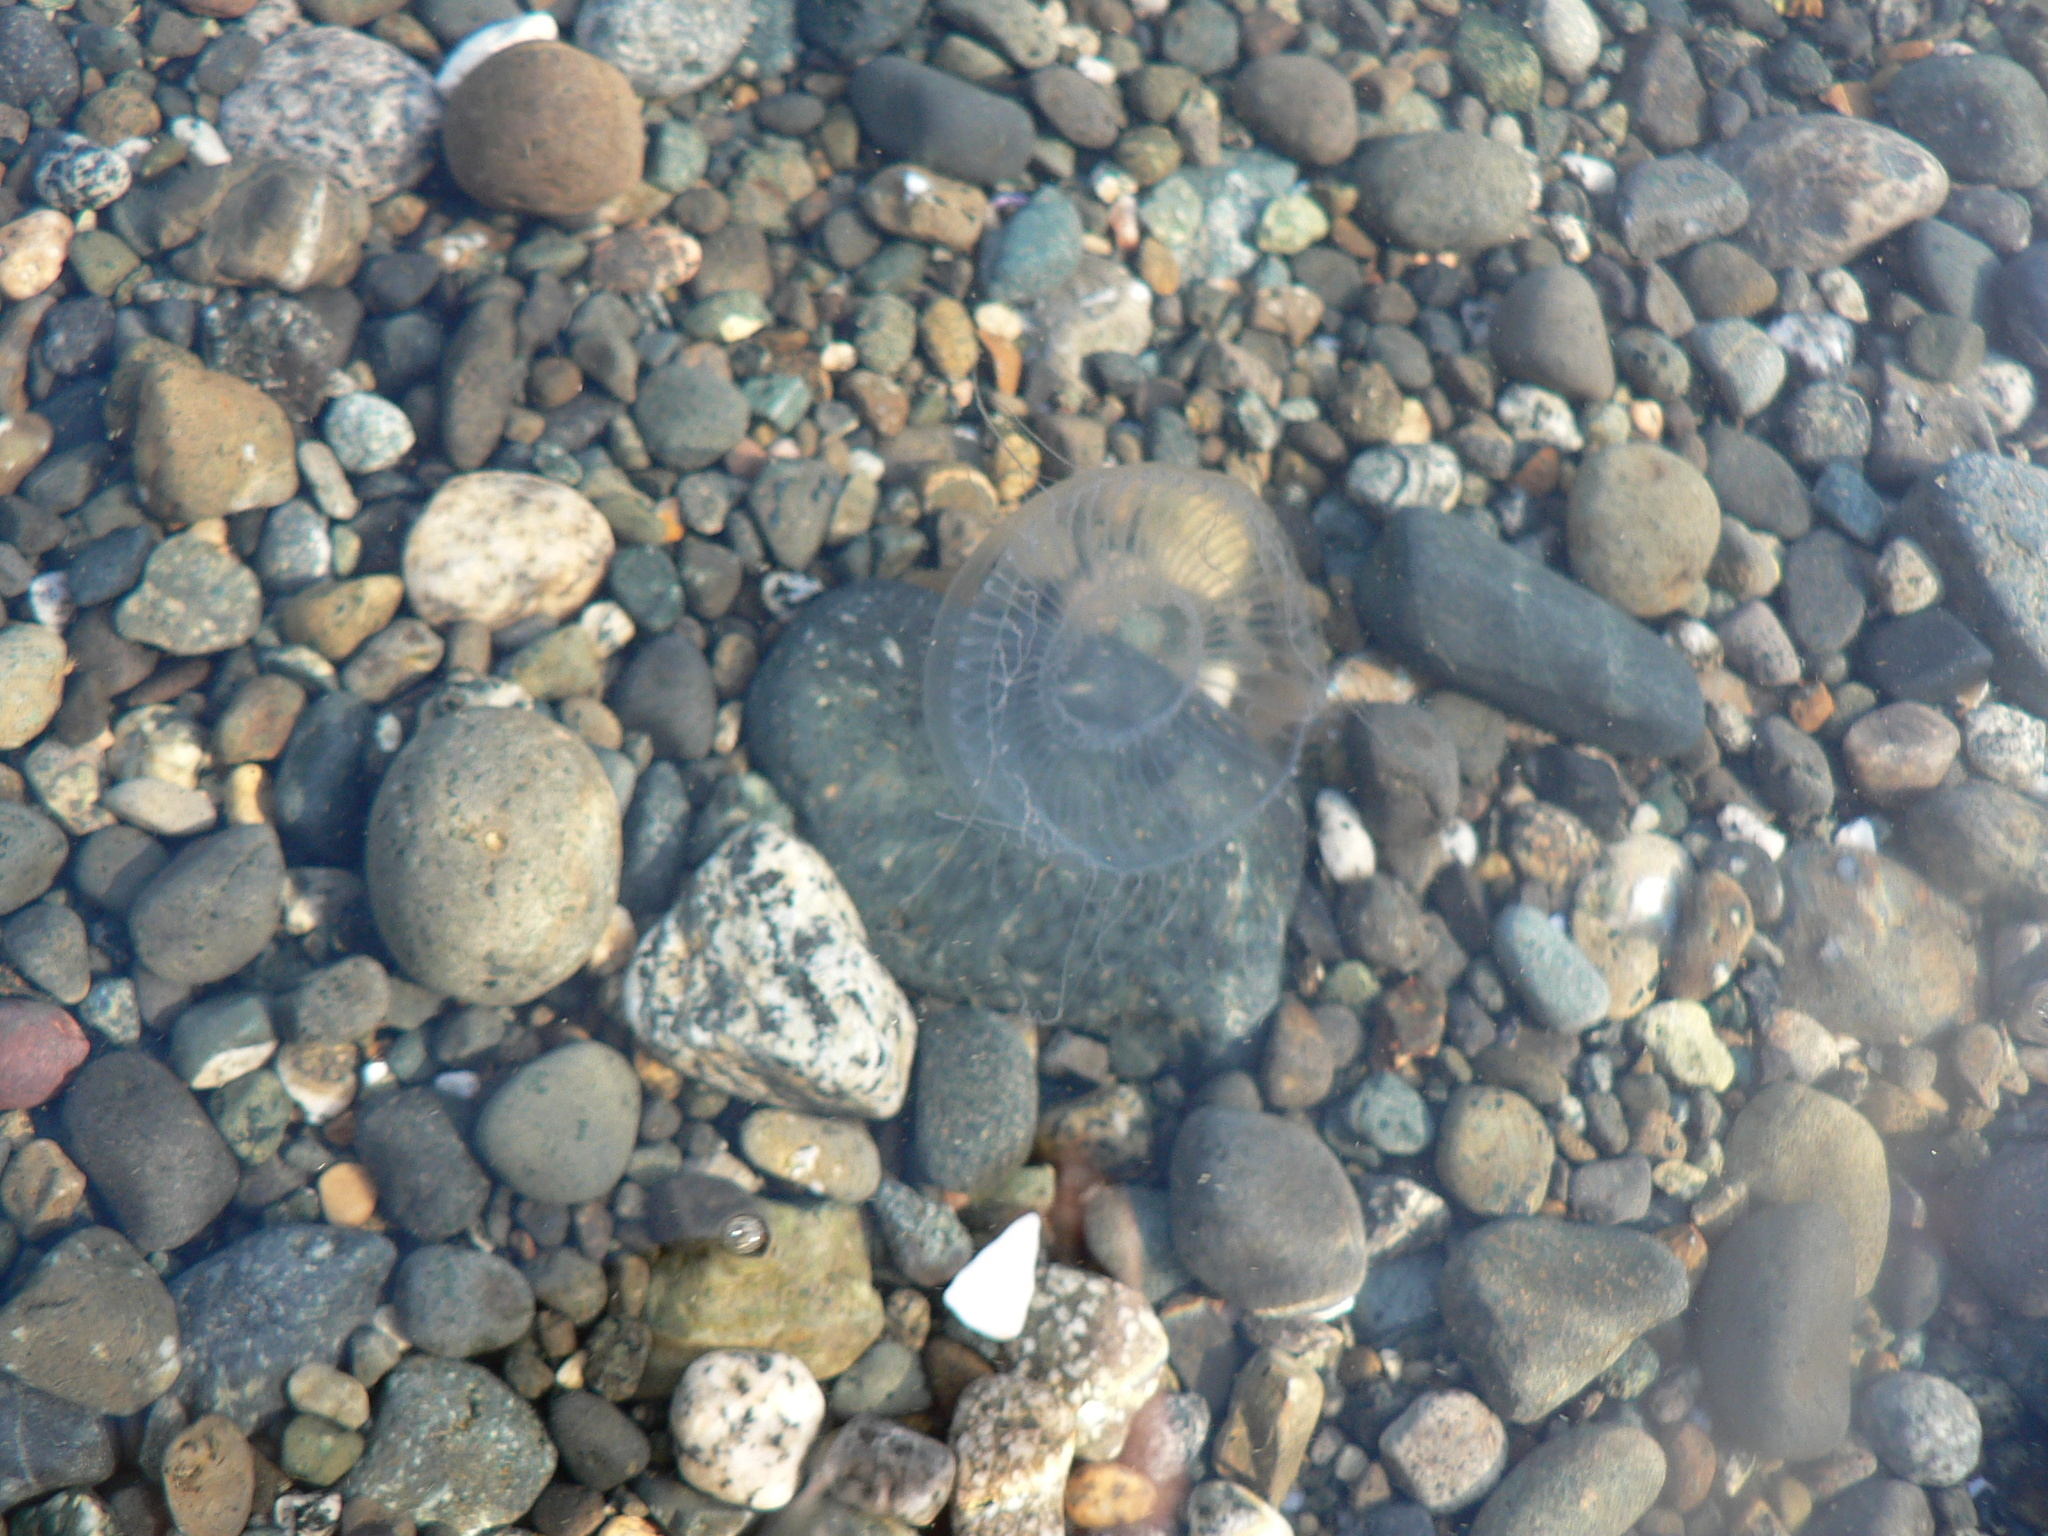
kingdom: Animalia
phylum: Cnidaria
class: Hydrozoa
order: Leptothecata
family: Aequoreidae
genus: Aequorea
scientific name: Aequorea victoria
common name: Water jellyfish
